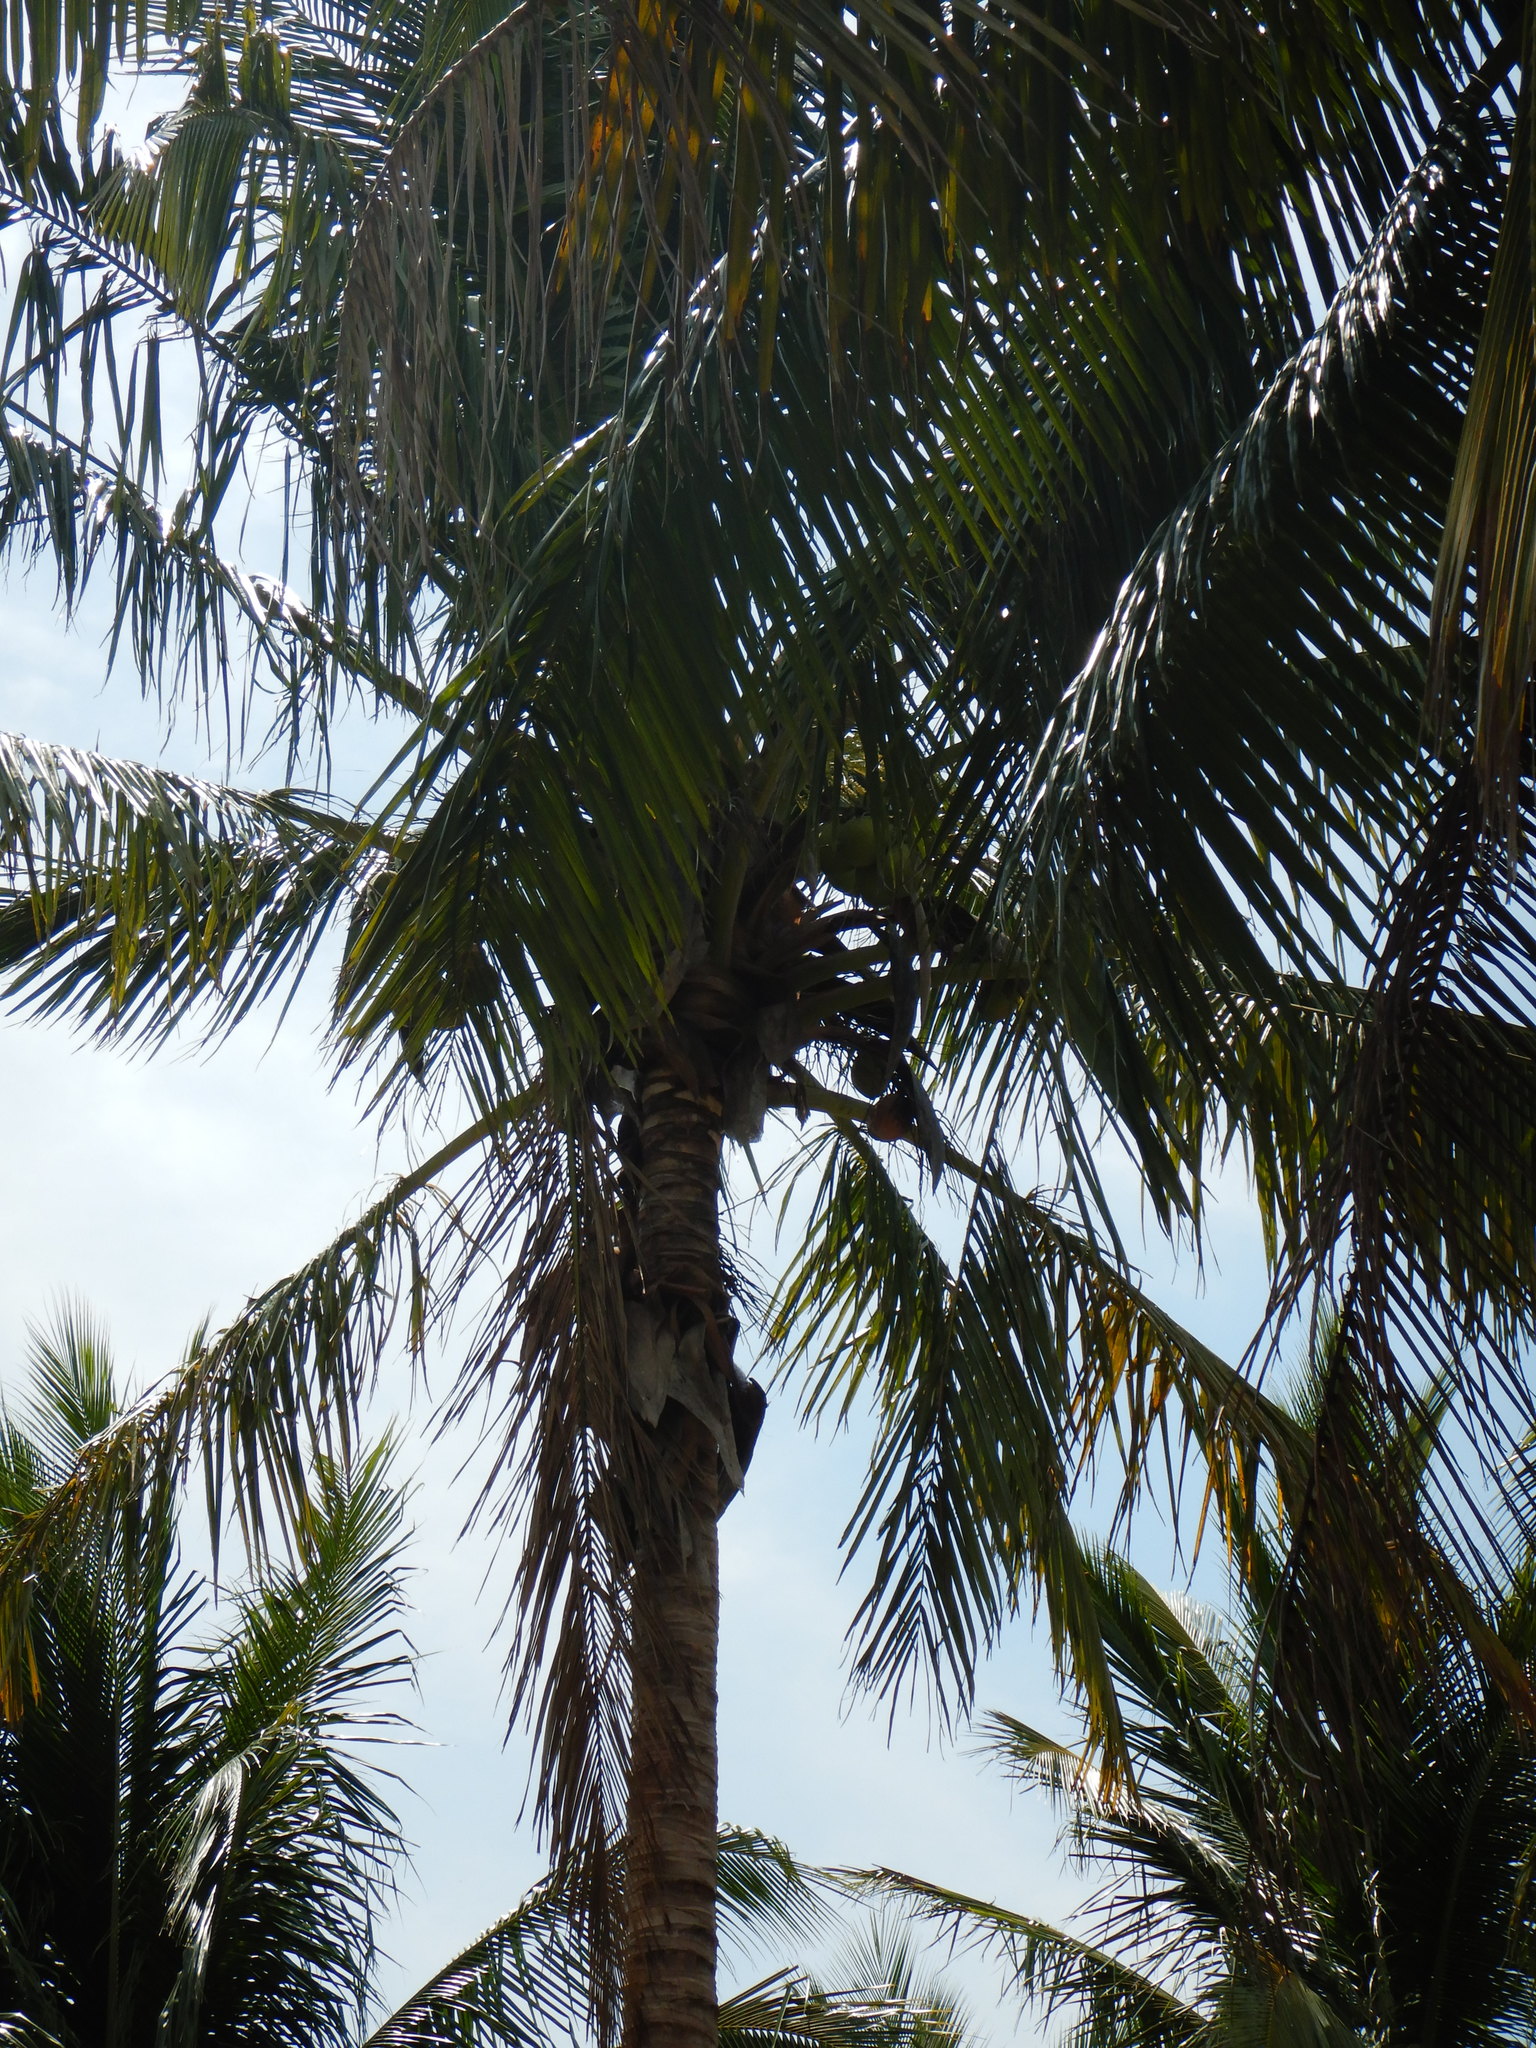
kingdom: Plantae
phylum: Tracheophyta
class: Liliopsida
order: Arecales
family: Arecaceae
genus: Cocos
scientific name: Cocos nucifera
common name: Coconut palm
